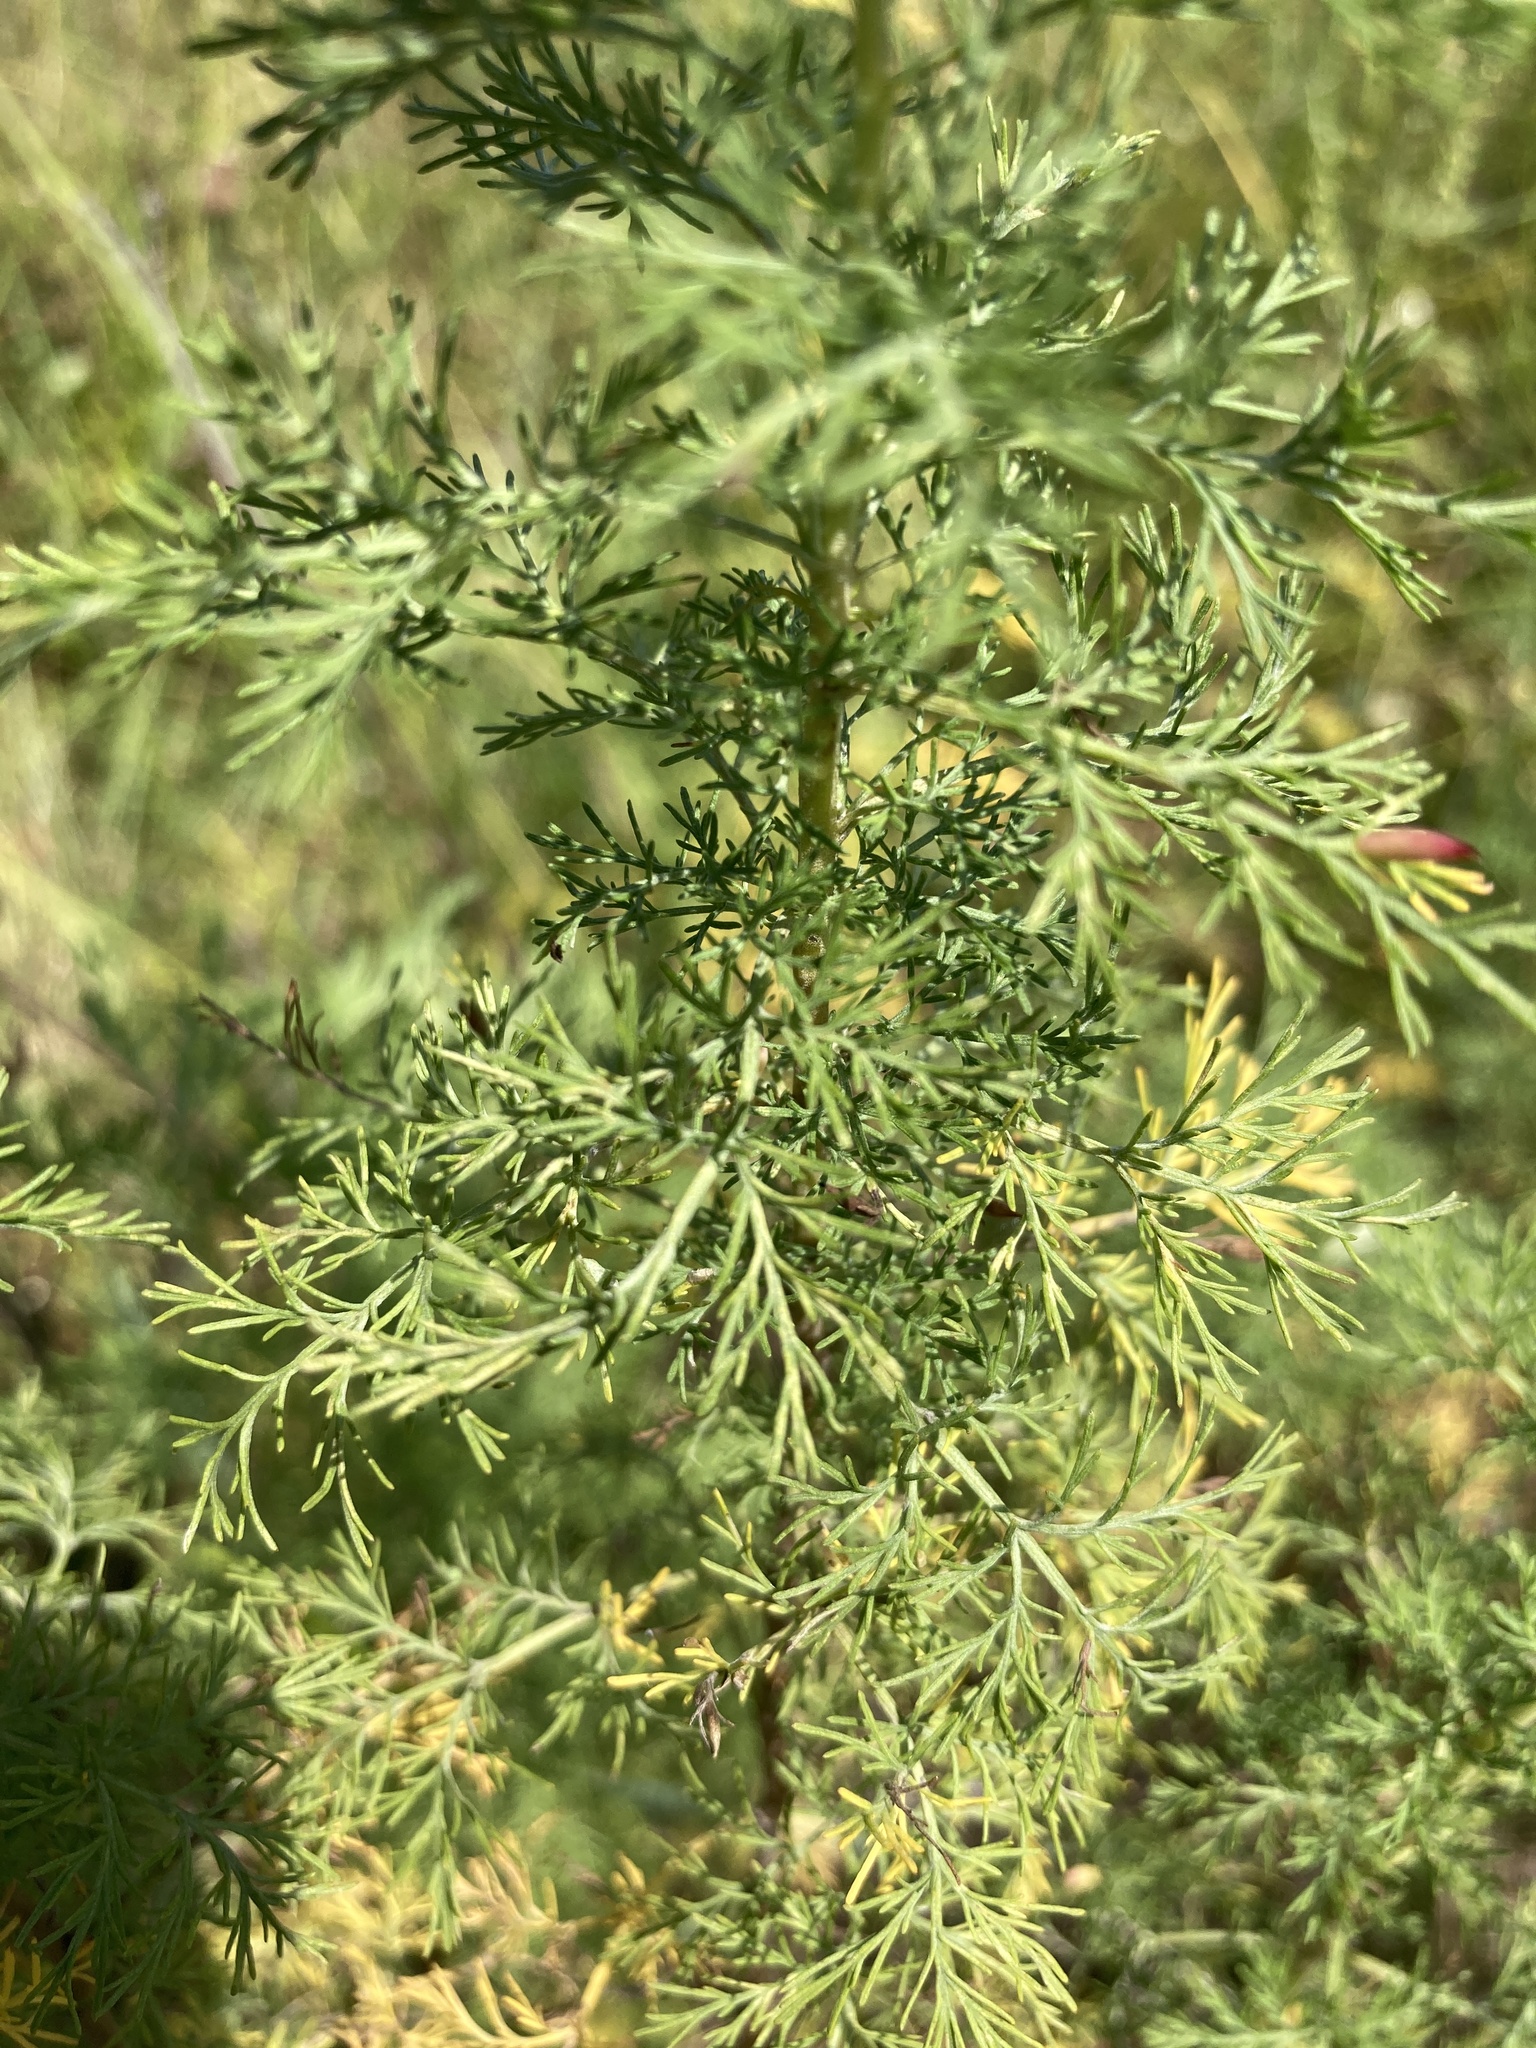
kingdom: Plantae
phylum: Tracheophyta
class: Magnoliopsida
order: Asterales
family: Asteraceae
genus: Artemisia
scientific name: Artemisia abrotanum
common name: Southernwood
